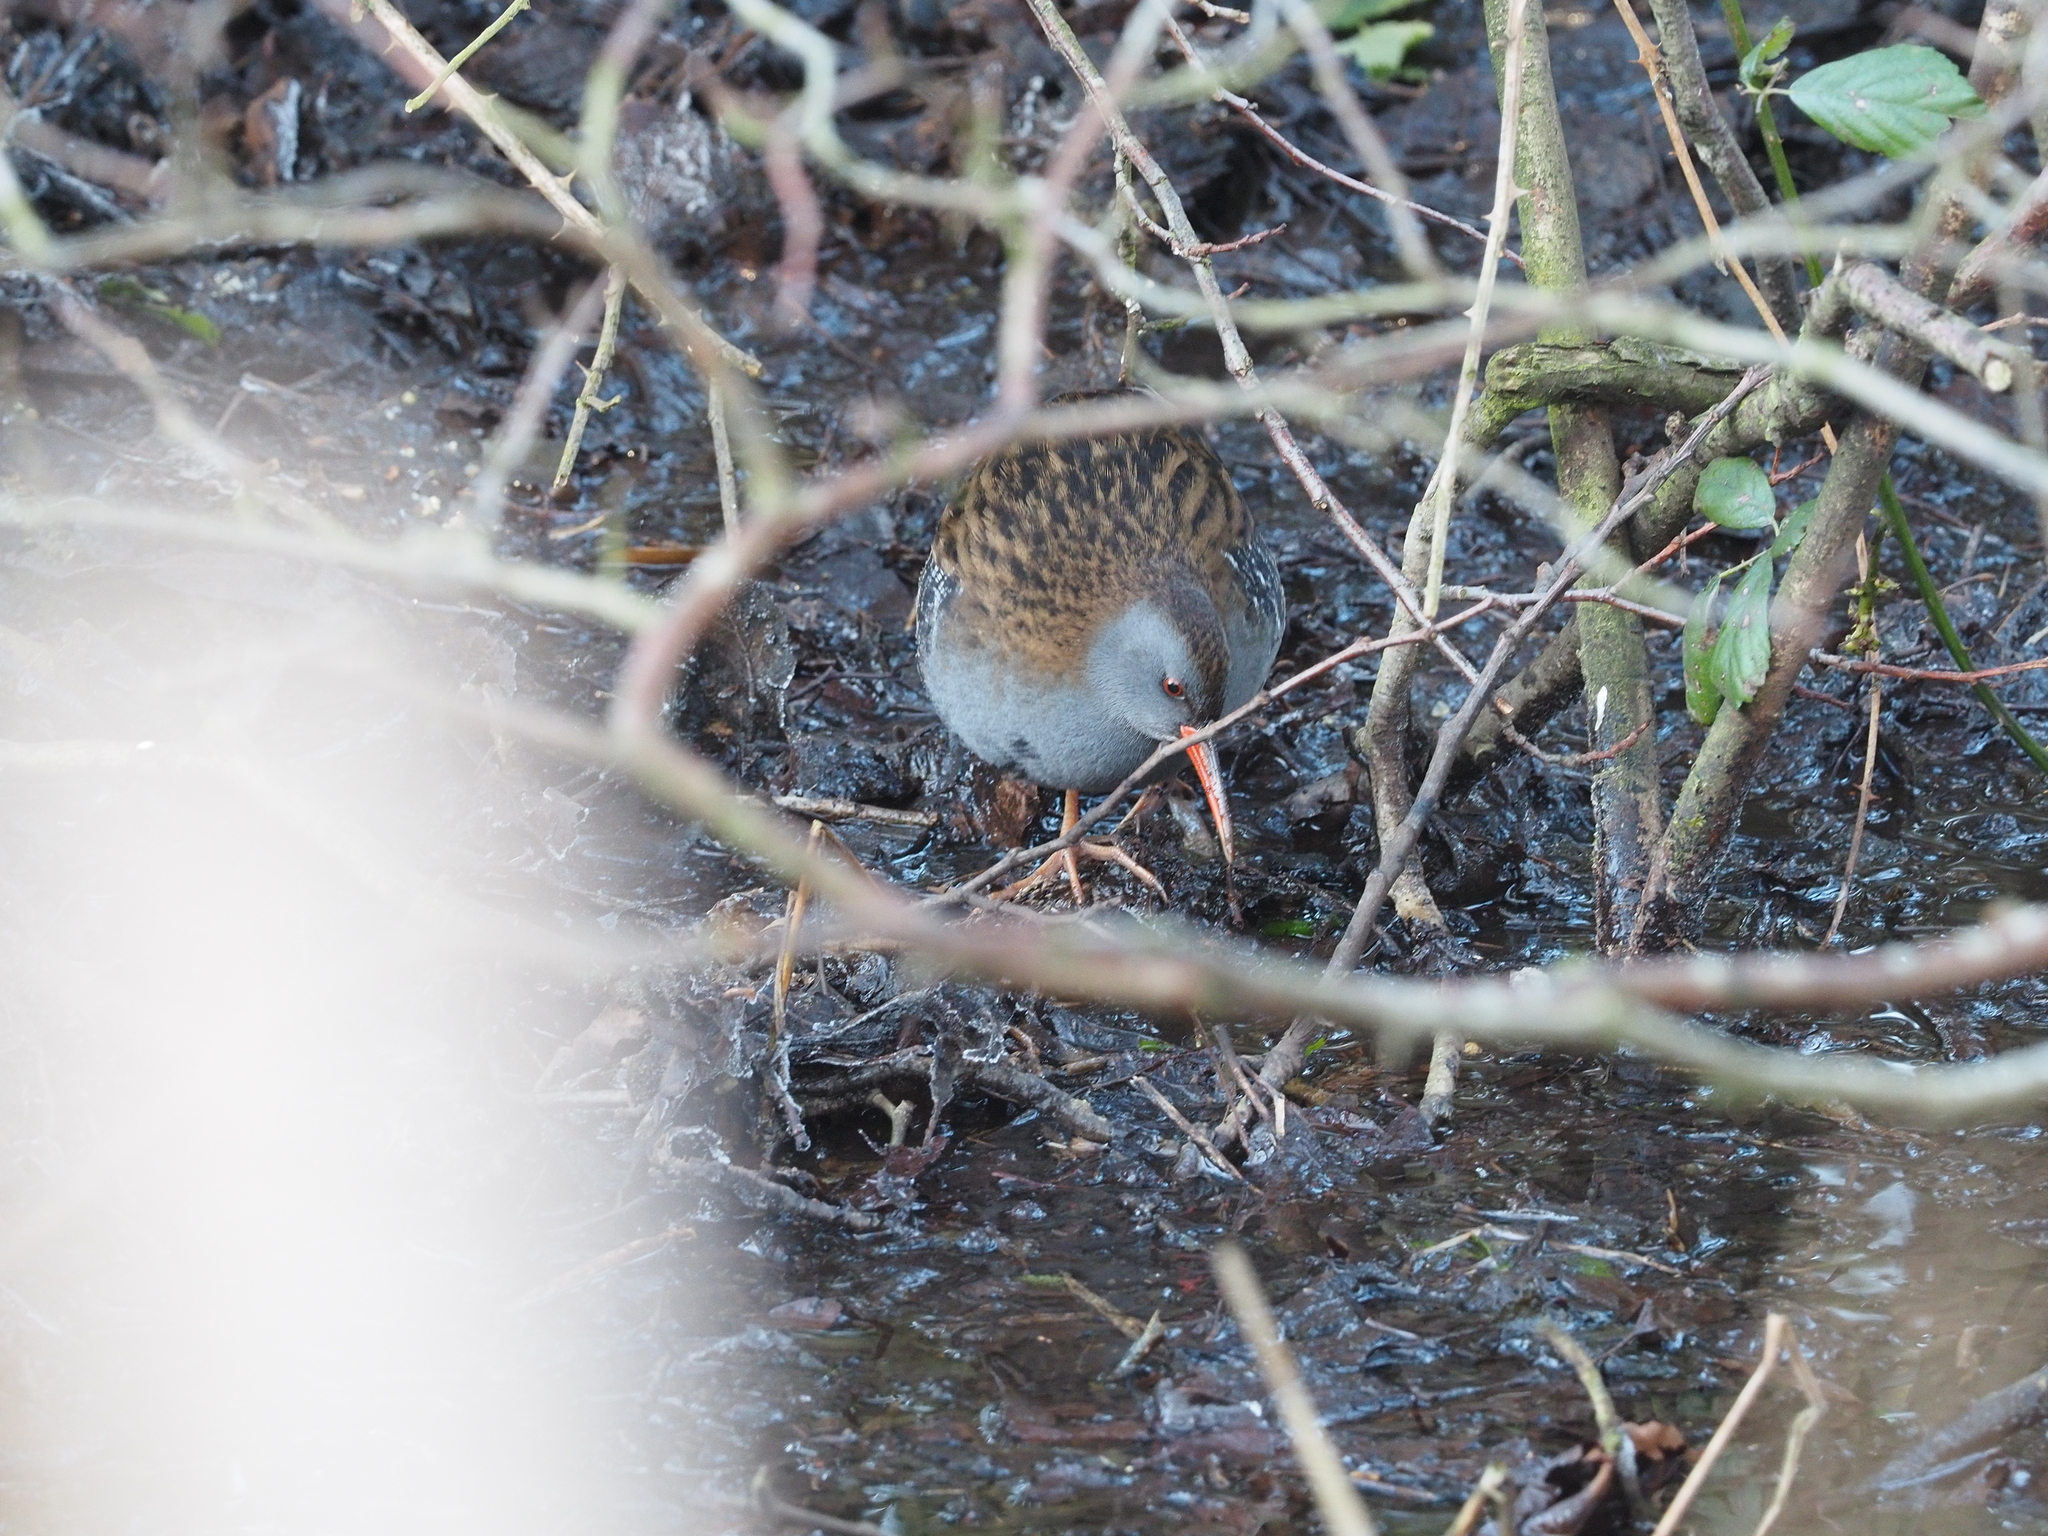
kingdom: Animalia
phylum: Chordata
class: Aves
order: Gruiformes
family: Rallidae
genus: Rallus
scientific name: Rallus aquaticus
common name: Water rail
